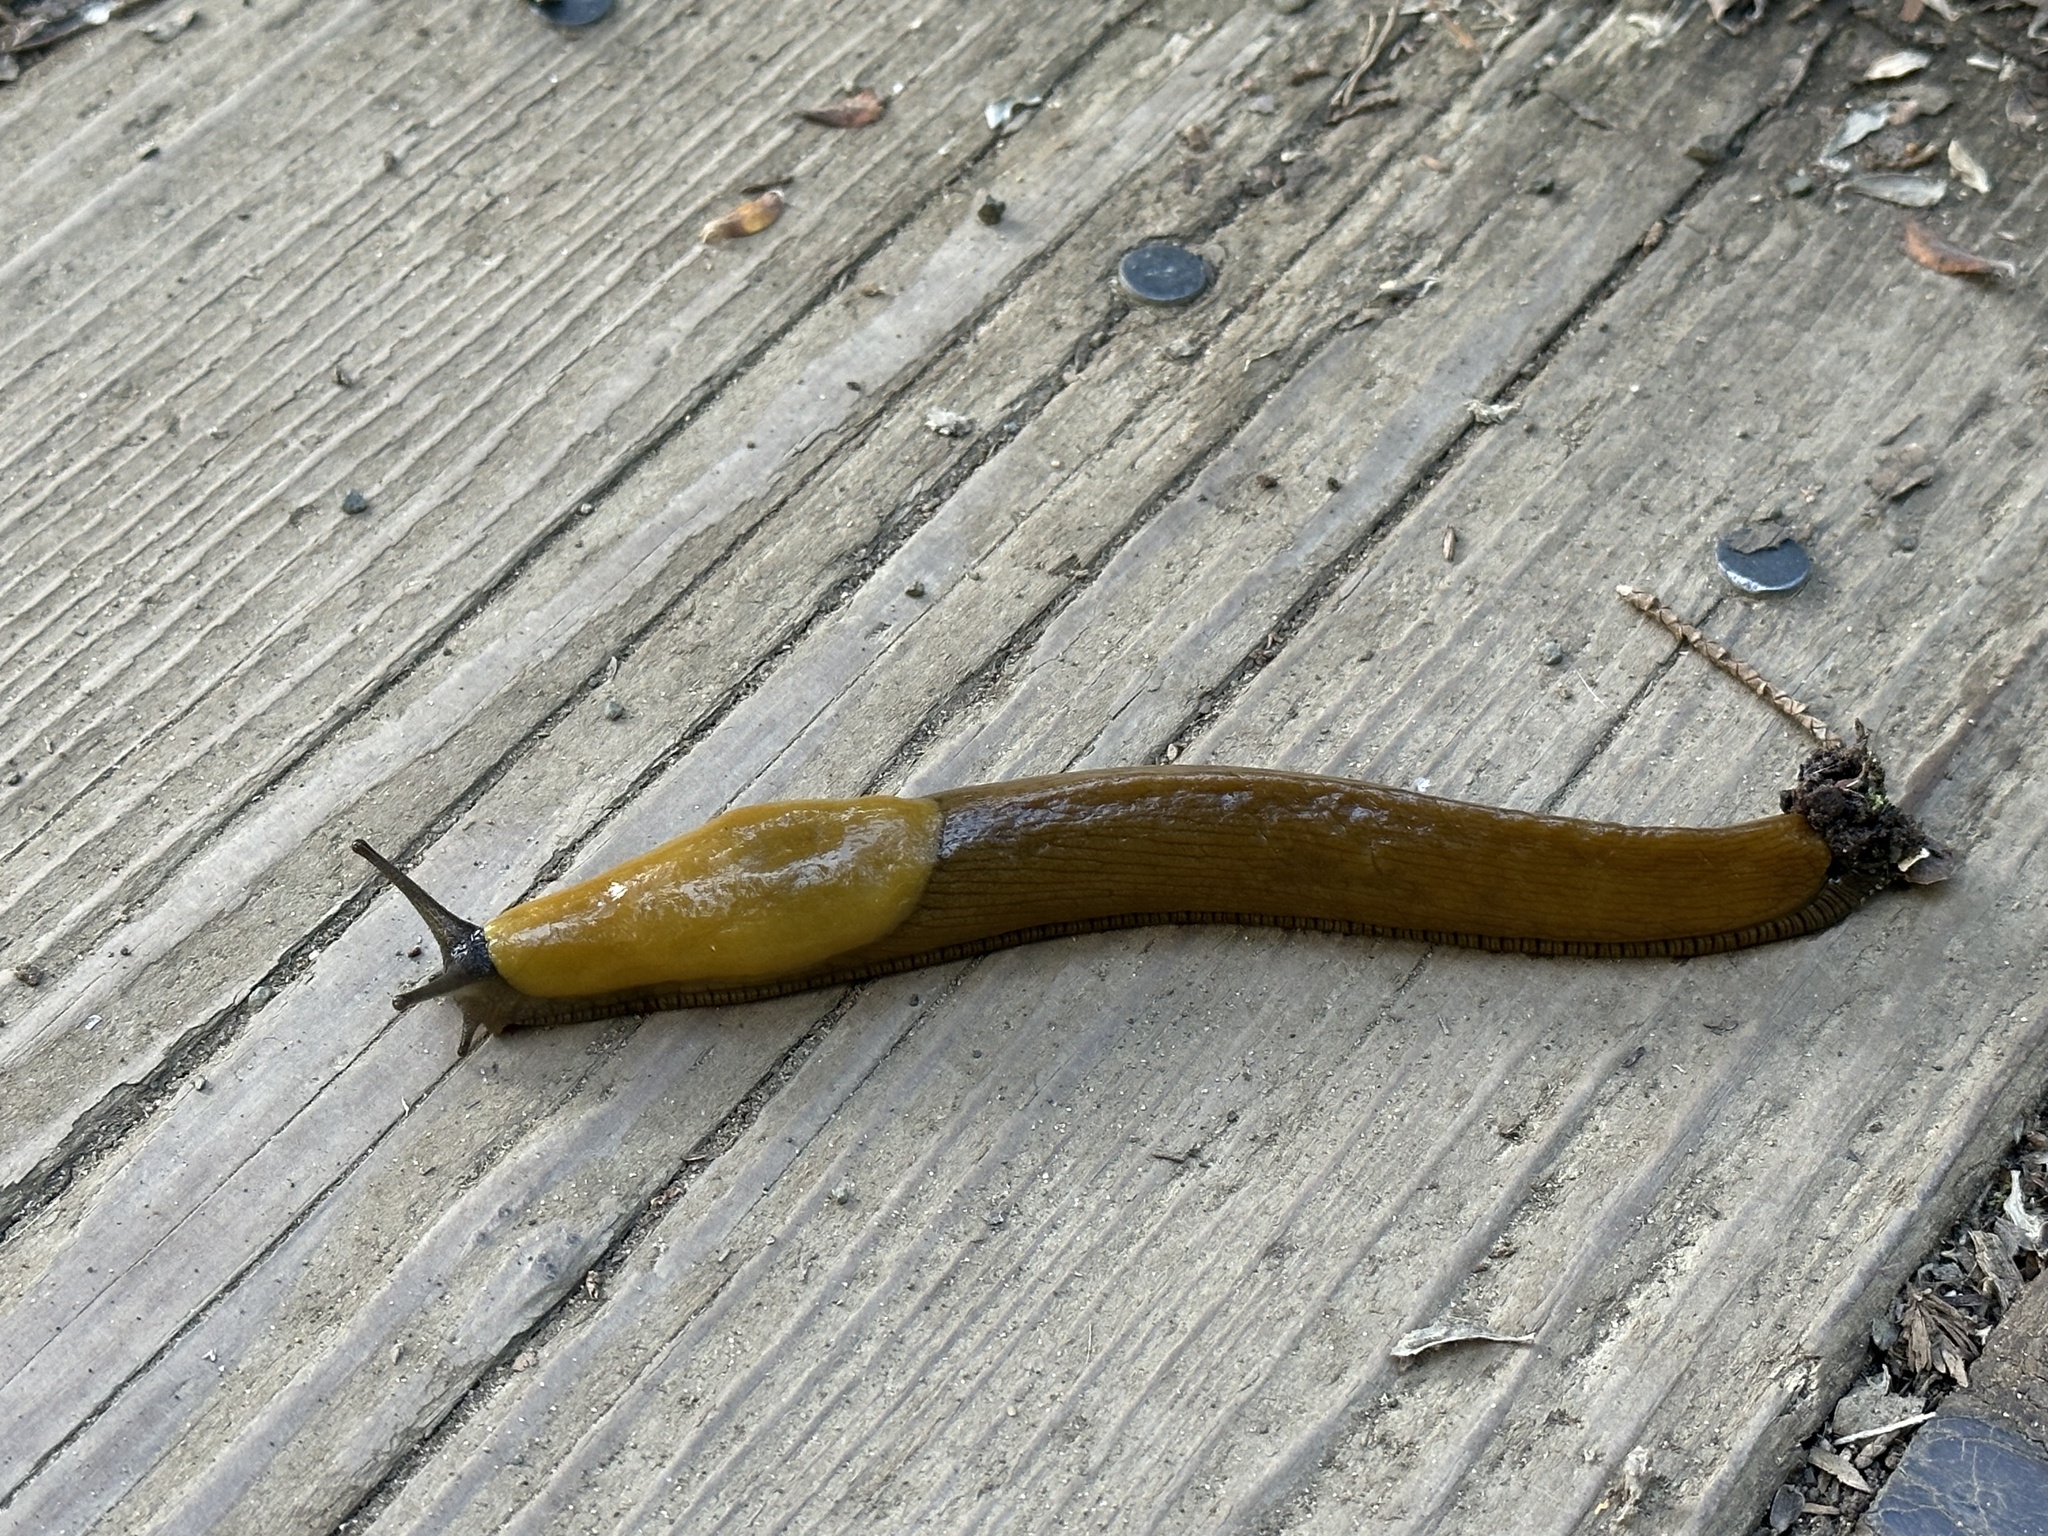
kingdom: Animalia
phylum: Mollusca
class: Gastropoda
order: Stylommatophora
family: Ariolimacidae
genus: Ariolimax
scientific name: Ariolimax
